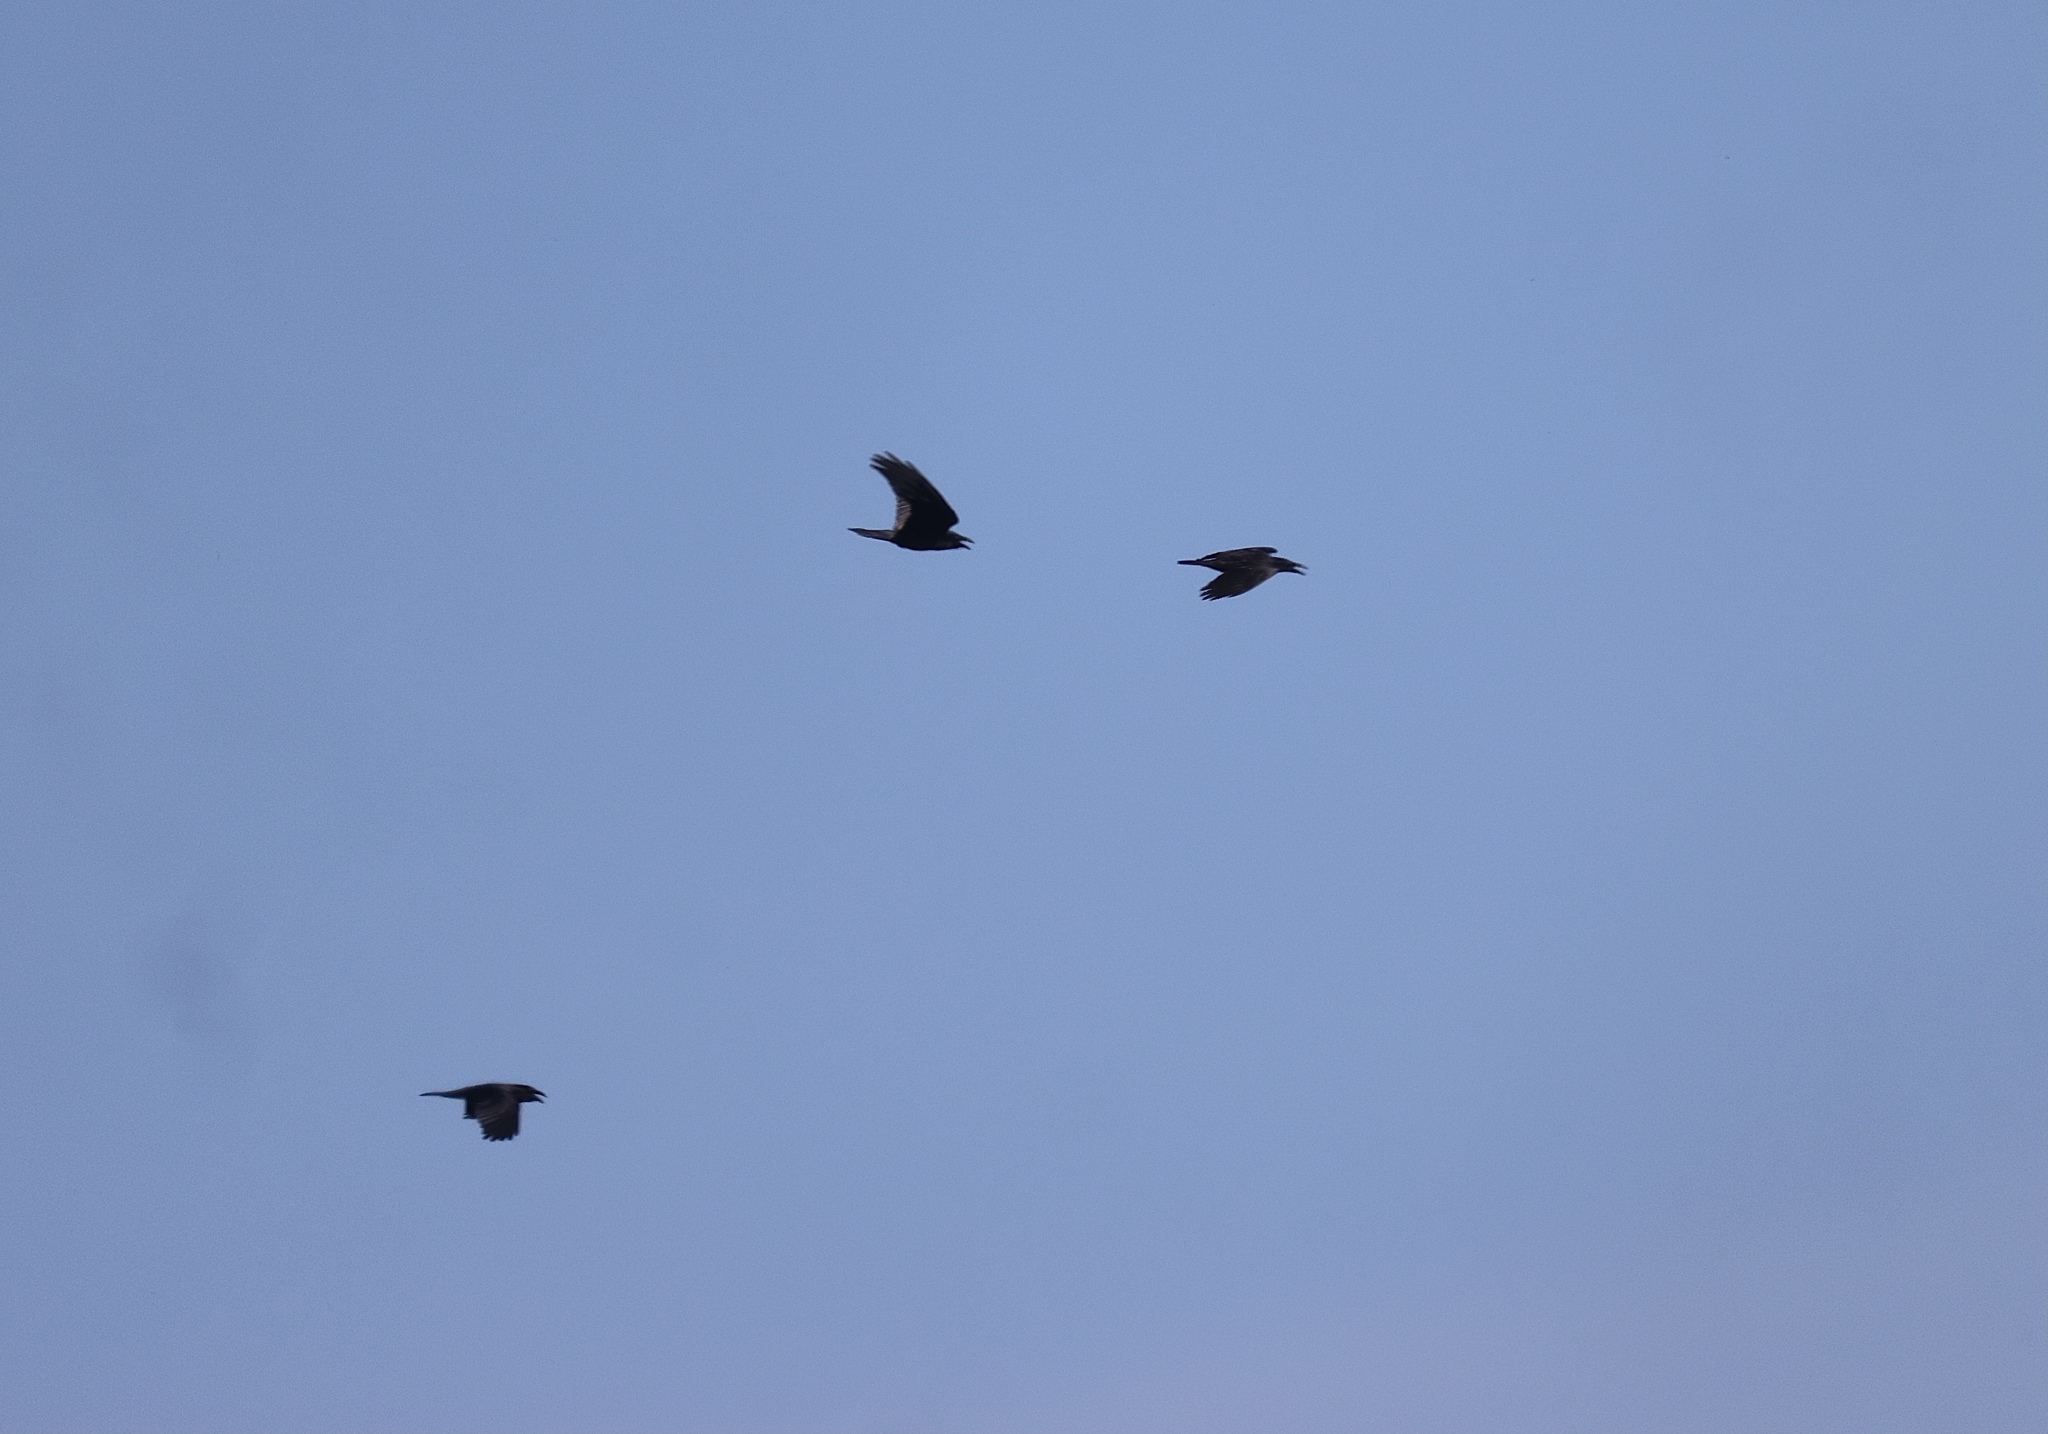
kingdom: Animalia
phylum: Chordata
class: Aves
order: Passeriformes
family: Corvidae
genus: Corvus
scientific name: Corvus corax
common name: Common raven
